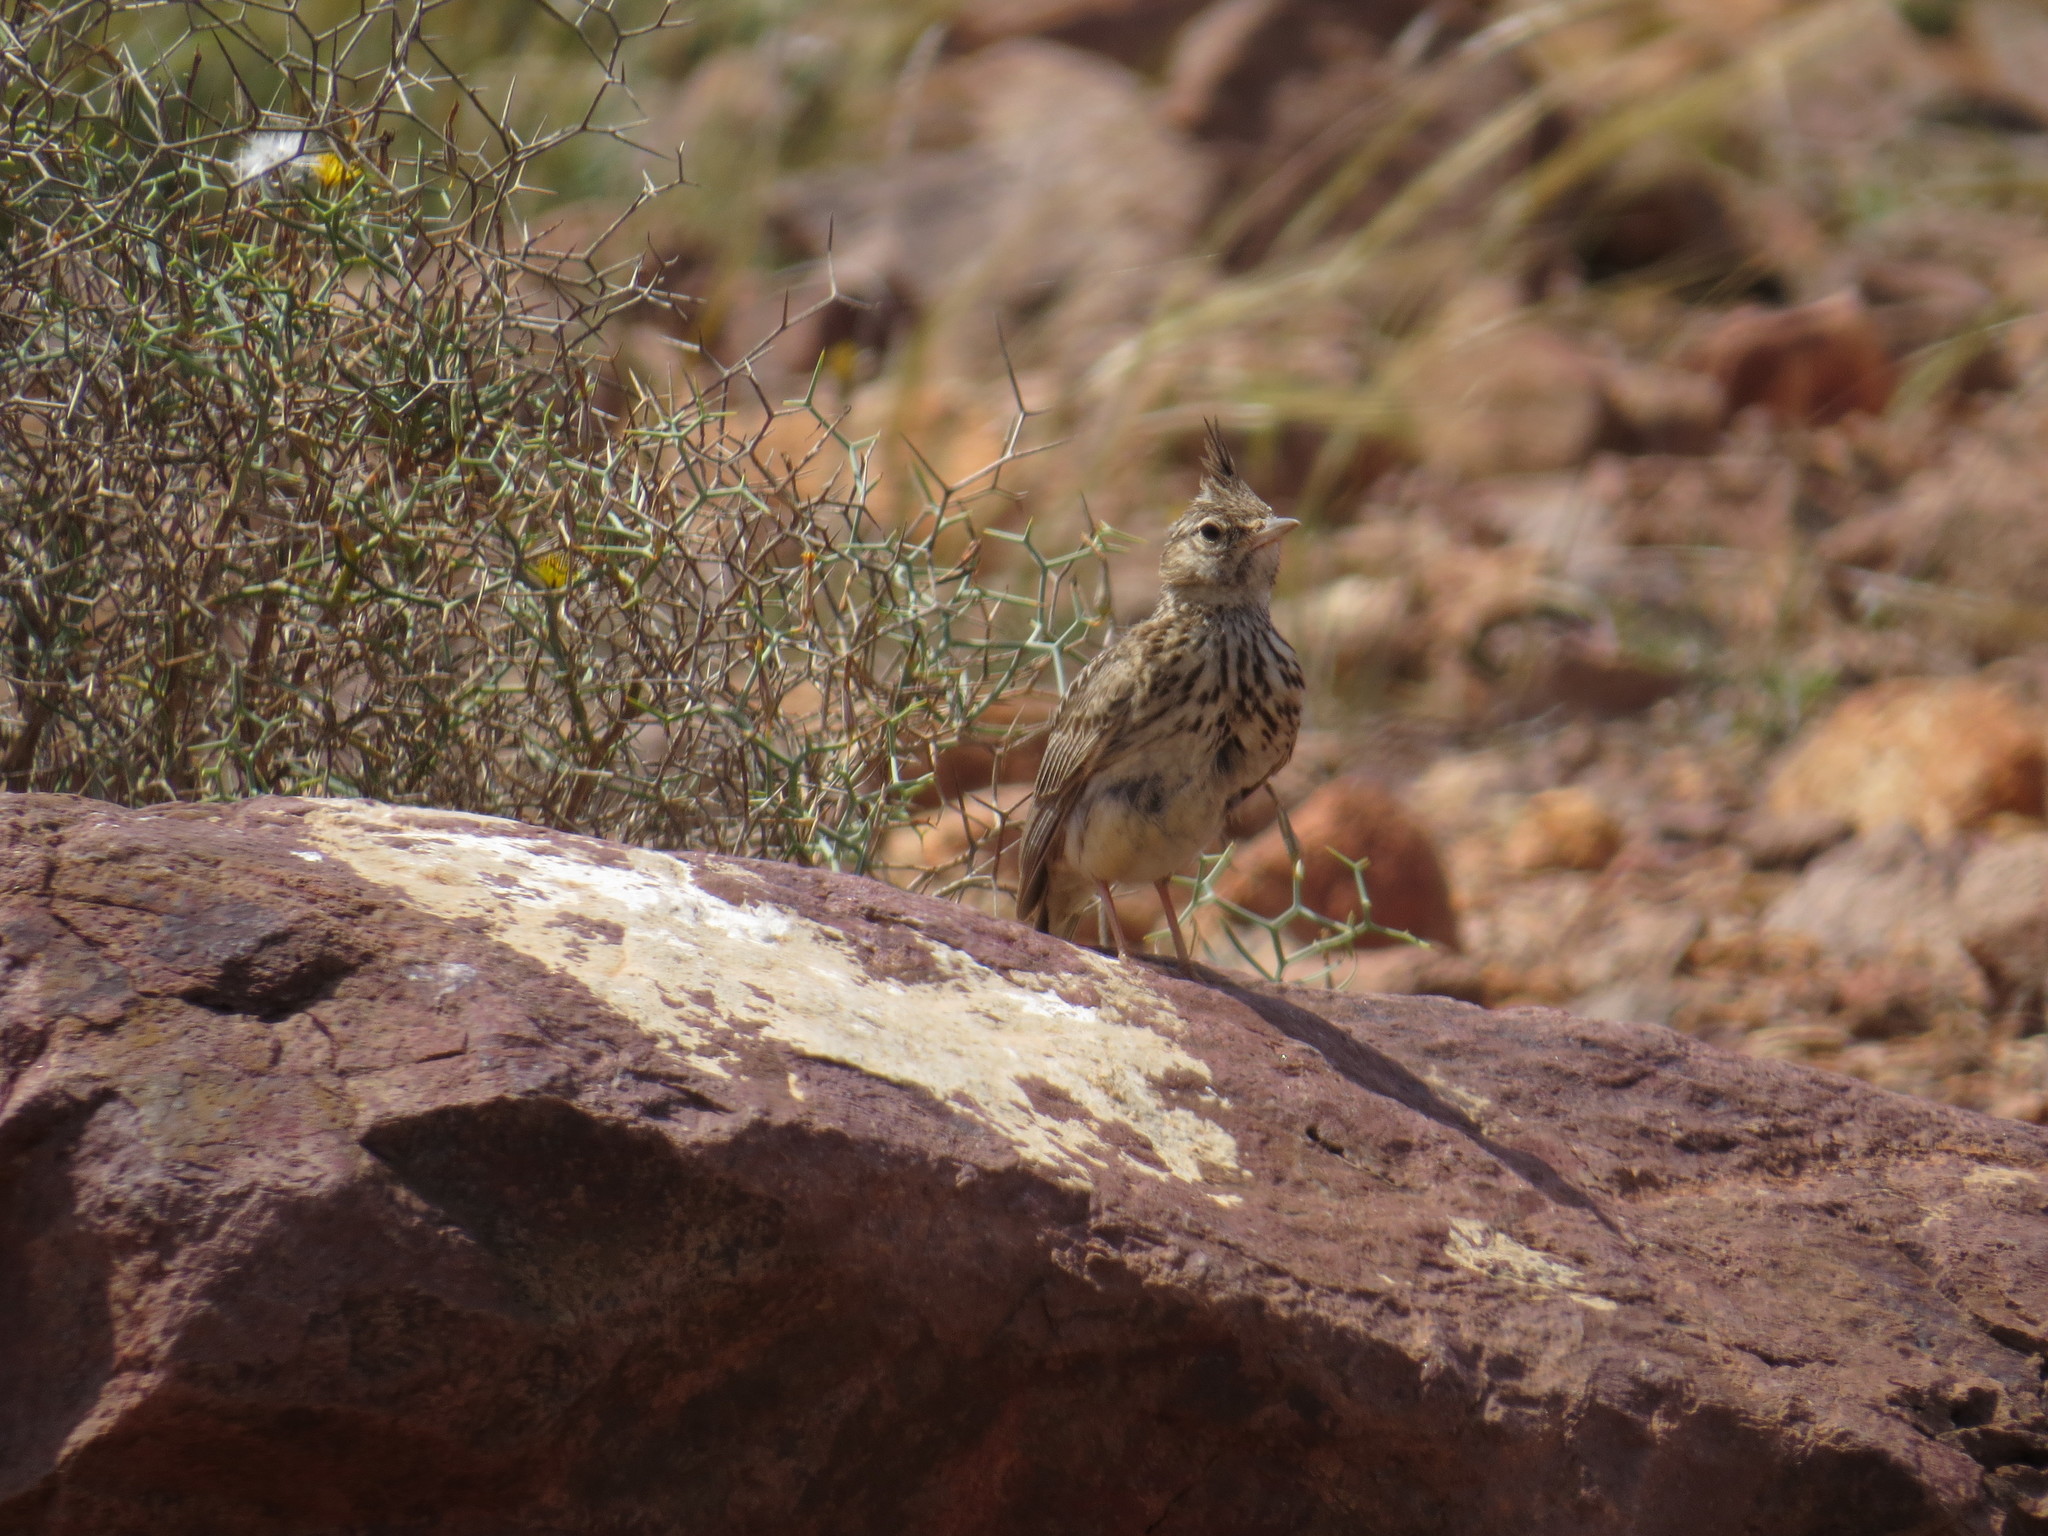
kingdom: Animalia
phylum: Chordata
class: Aves
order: Passeriformes
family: Alaudidae
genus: Galerida
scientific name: Galerida theklae
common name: Thekla lark
